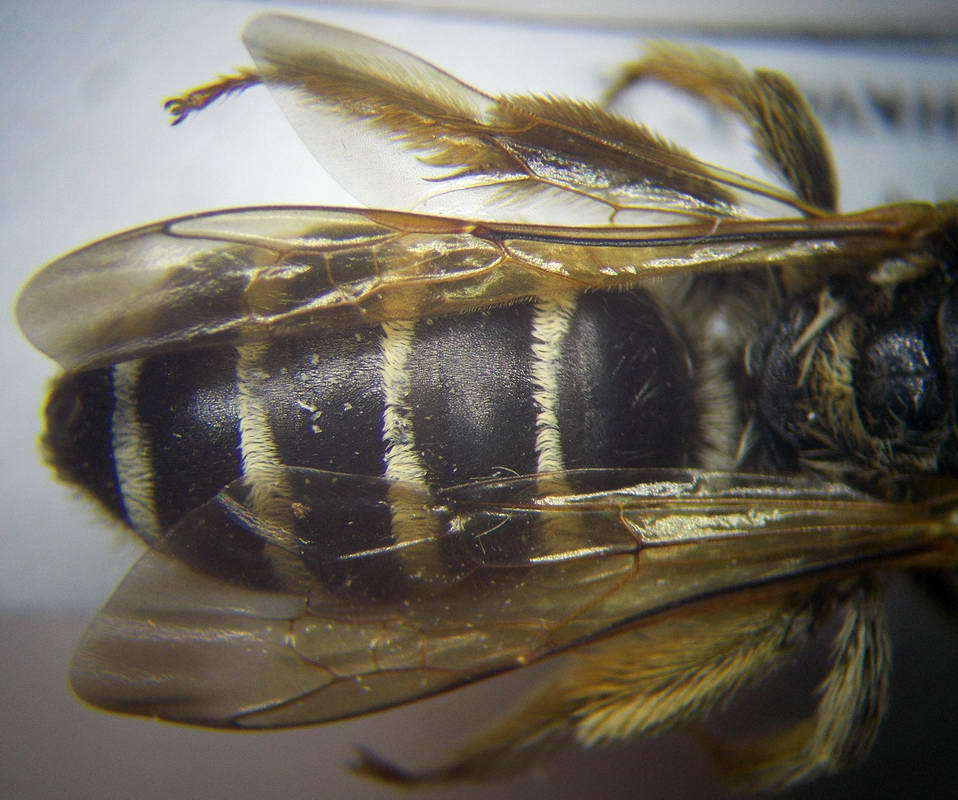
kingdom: Animalia
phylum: Arthropoda
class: Insecta
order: Hymenoptera
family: Halictidae
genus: Halictus
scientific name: Halictus quadricinctus
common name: Giant furrow bee
